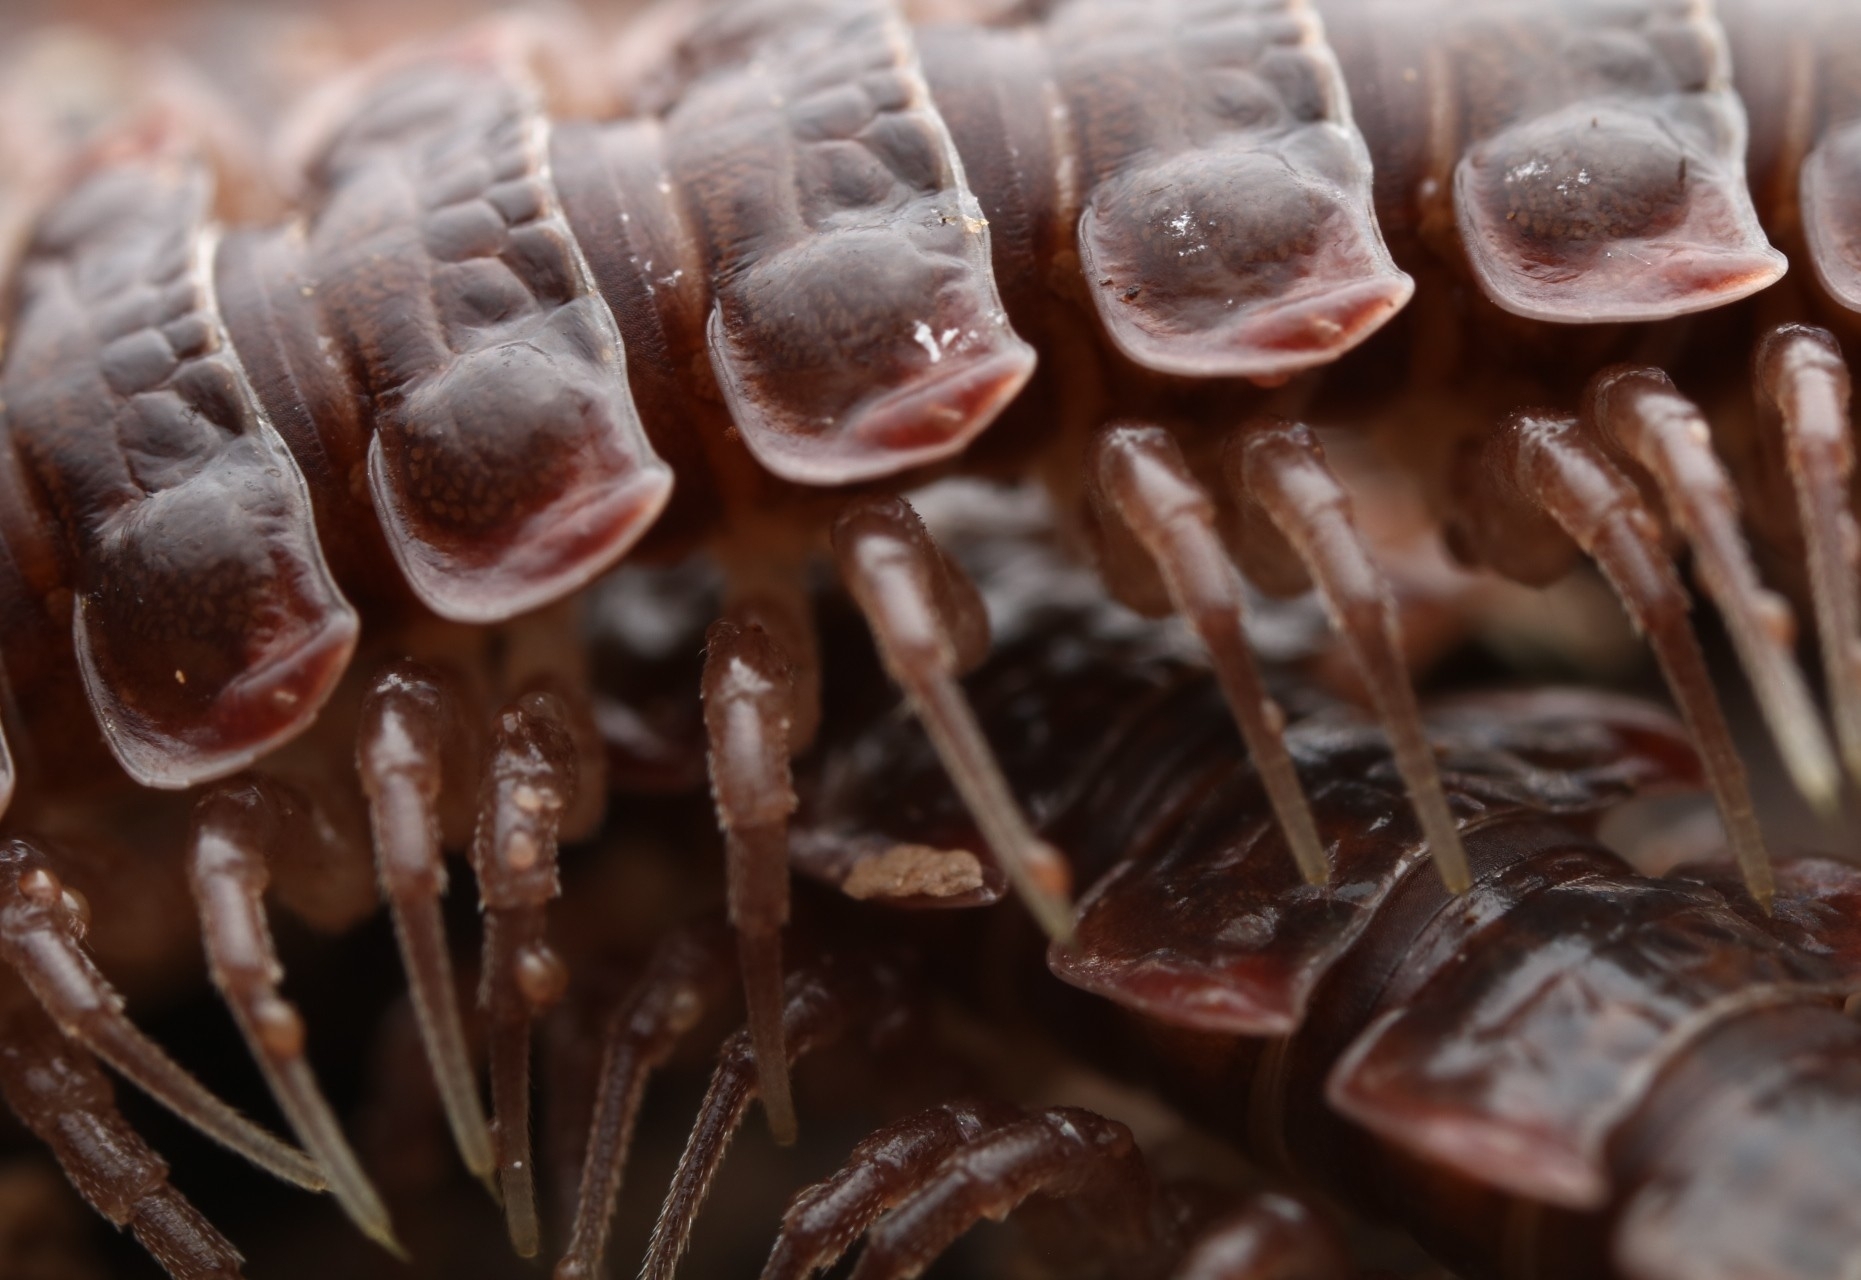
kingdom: Animalia
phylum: Arthropoda
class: Diplopoda
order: Polydesmida
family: Polydesmidae
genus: Pseudopolydesmus
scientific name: Pseudopolydesmus serratus
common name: Common pink flat-back millipede
